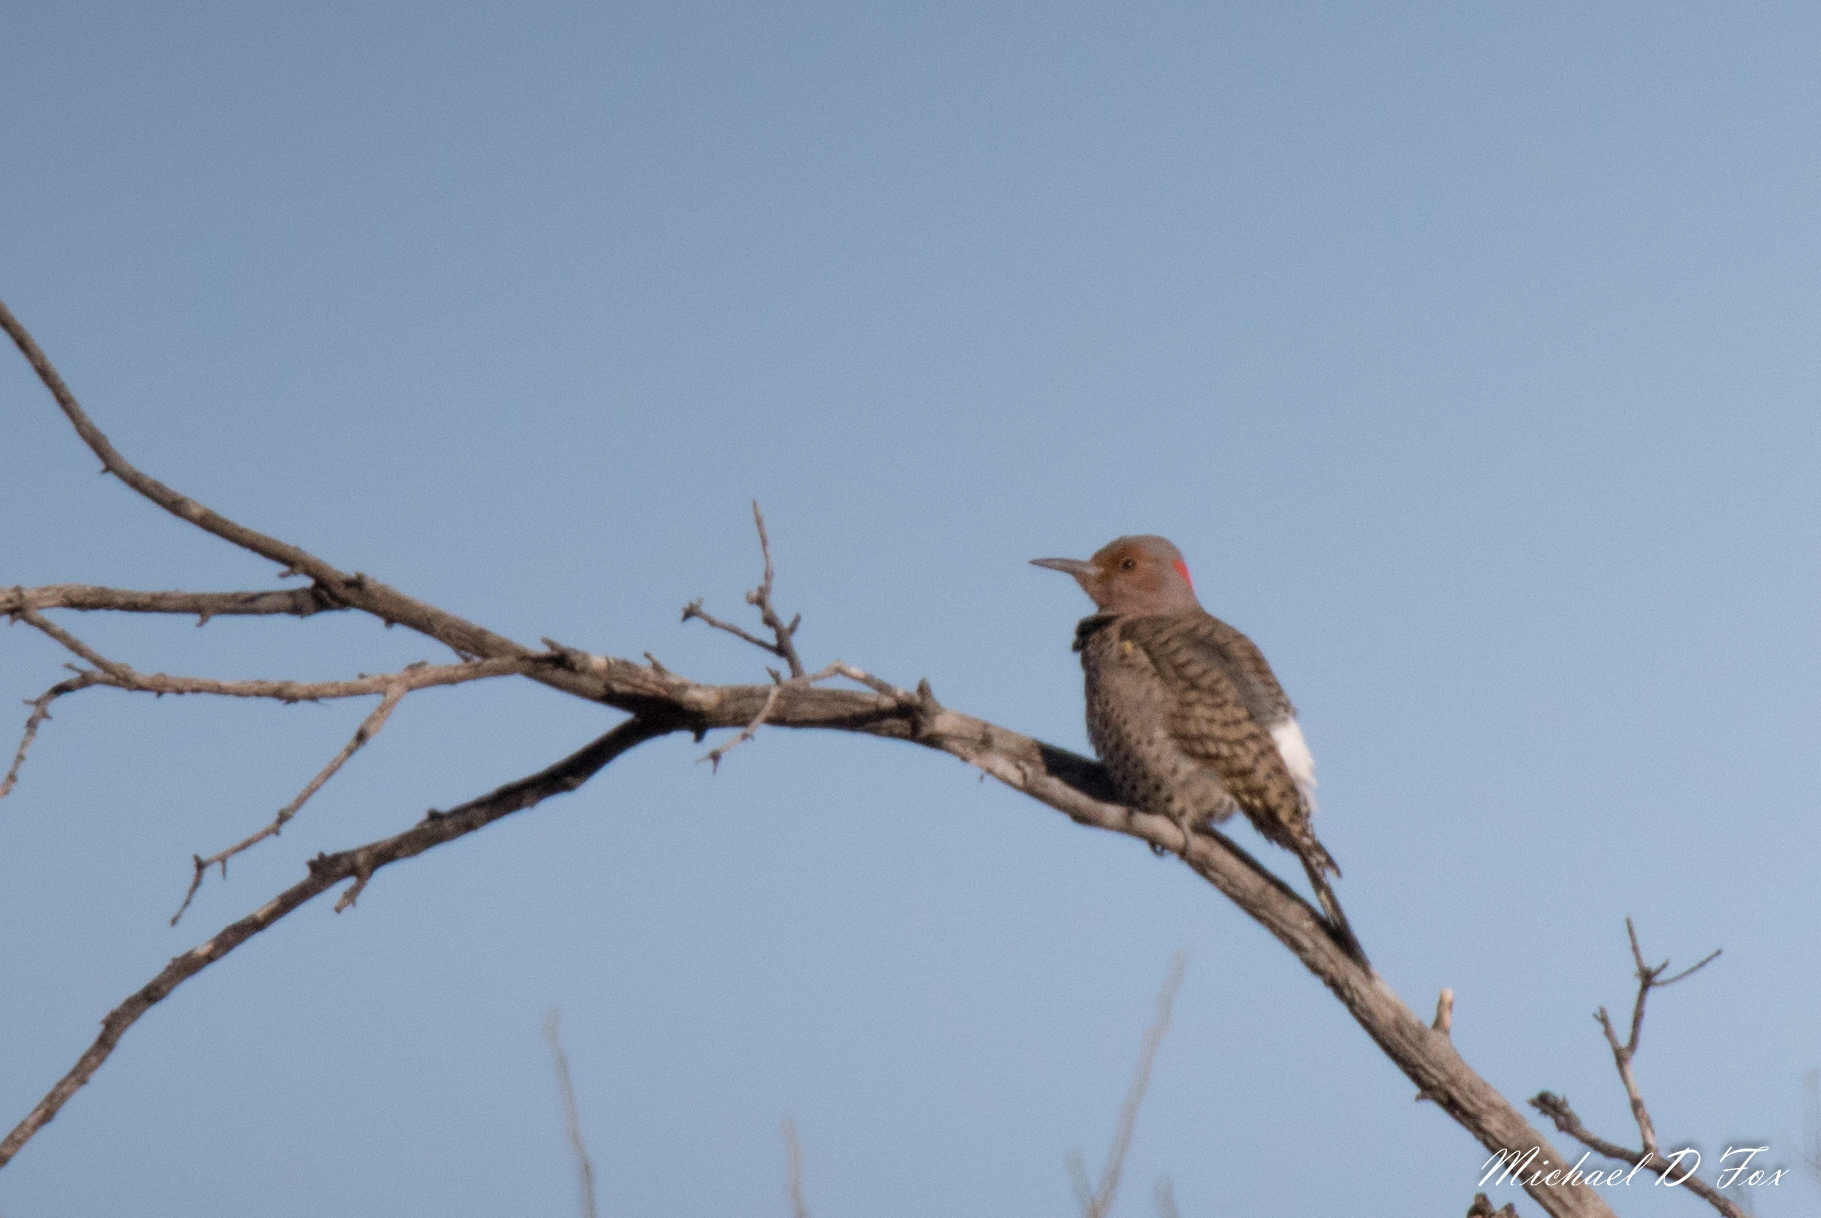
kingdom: Animalia
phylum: Chordata
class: Aves
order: Piciformes
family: Picidae
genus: Colaptes
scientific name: Colaptes auratus
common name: Northern flicker
